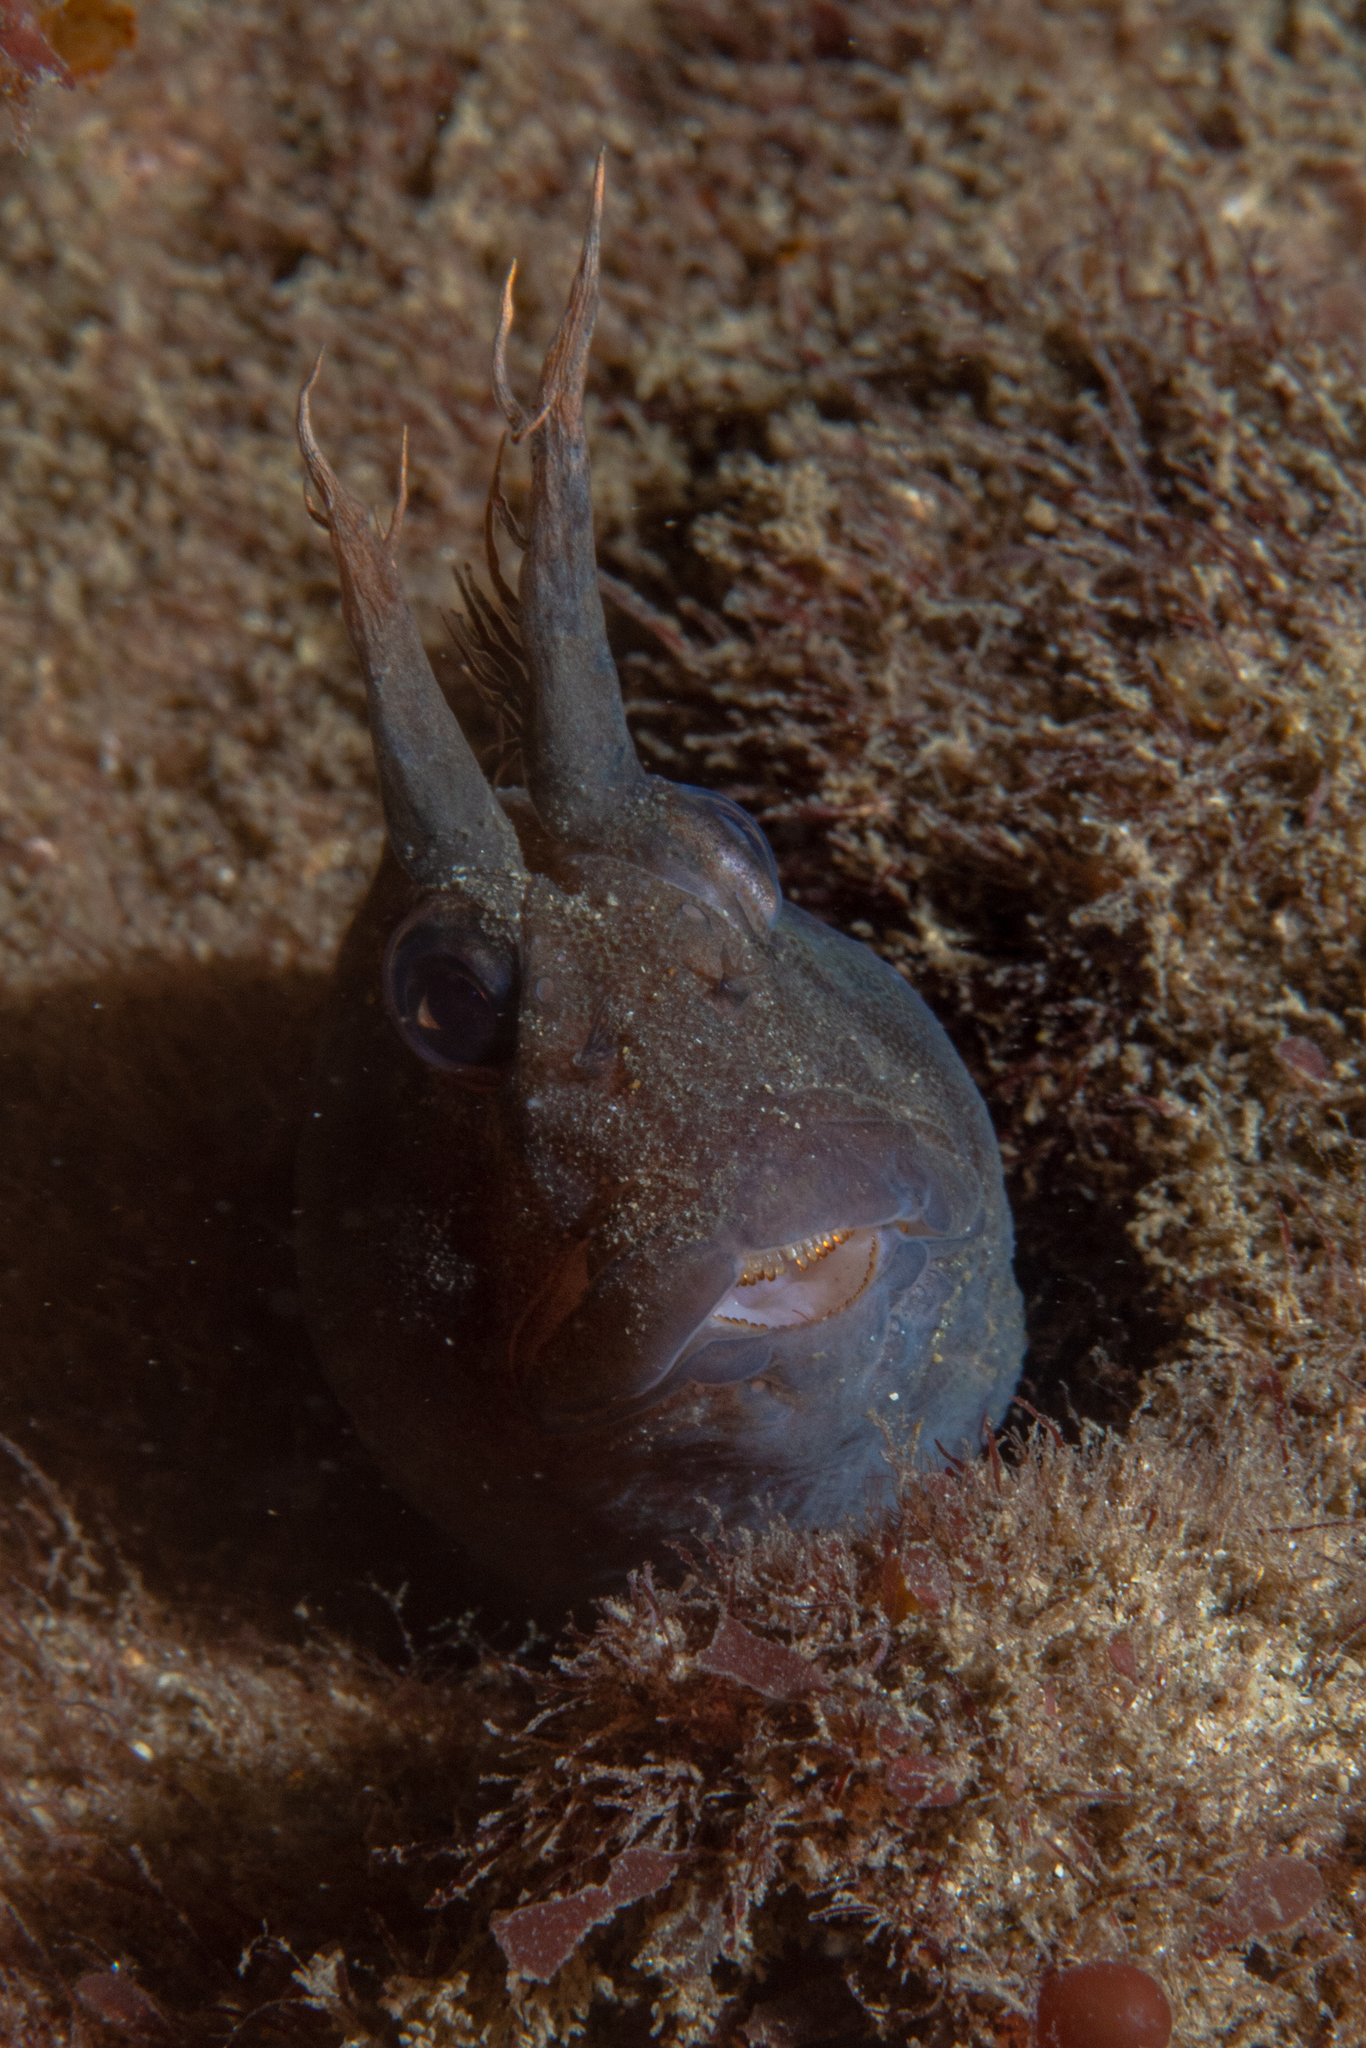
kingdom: Animalia
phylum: Chordata
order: Perciformes
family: Blenniidae
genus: Parablennius
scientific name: Parablennius tasmanianus
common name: Tasmanian blenny
